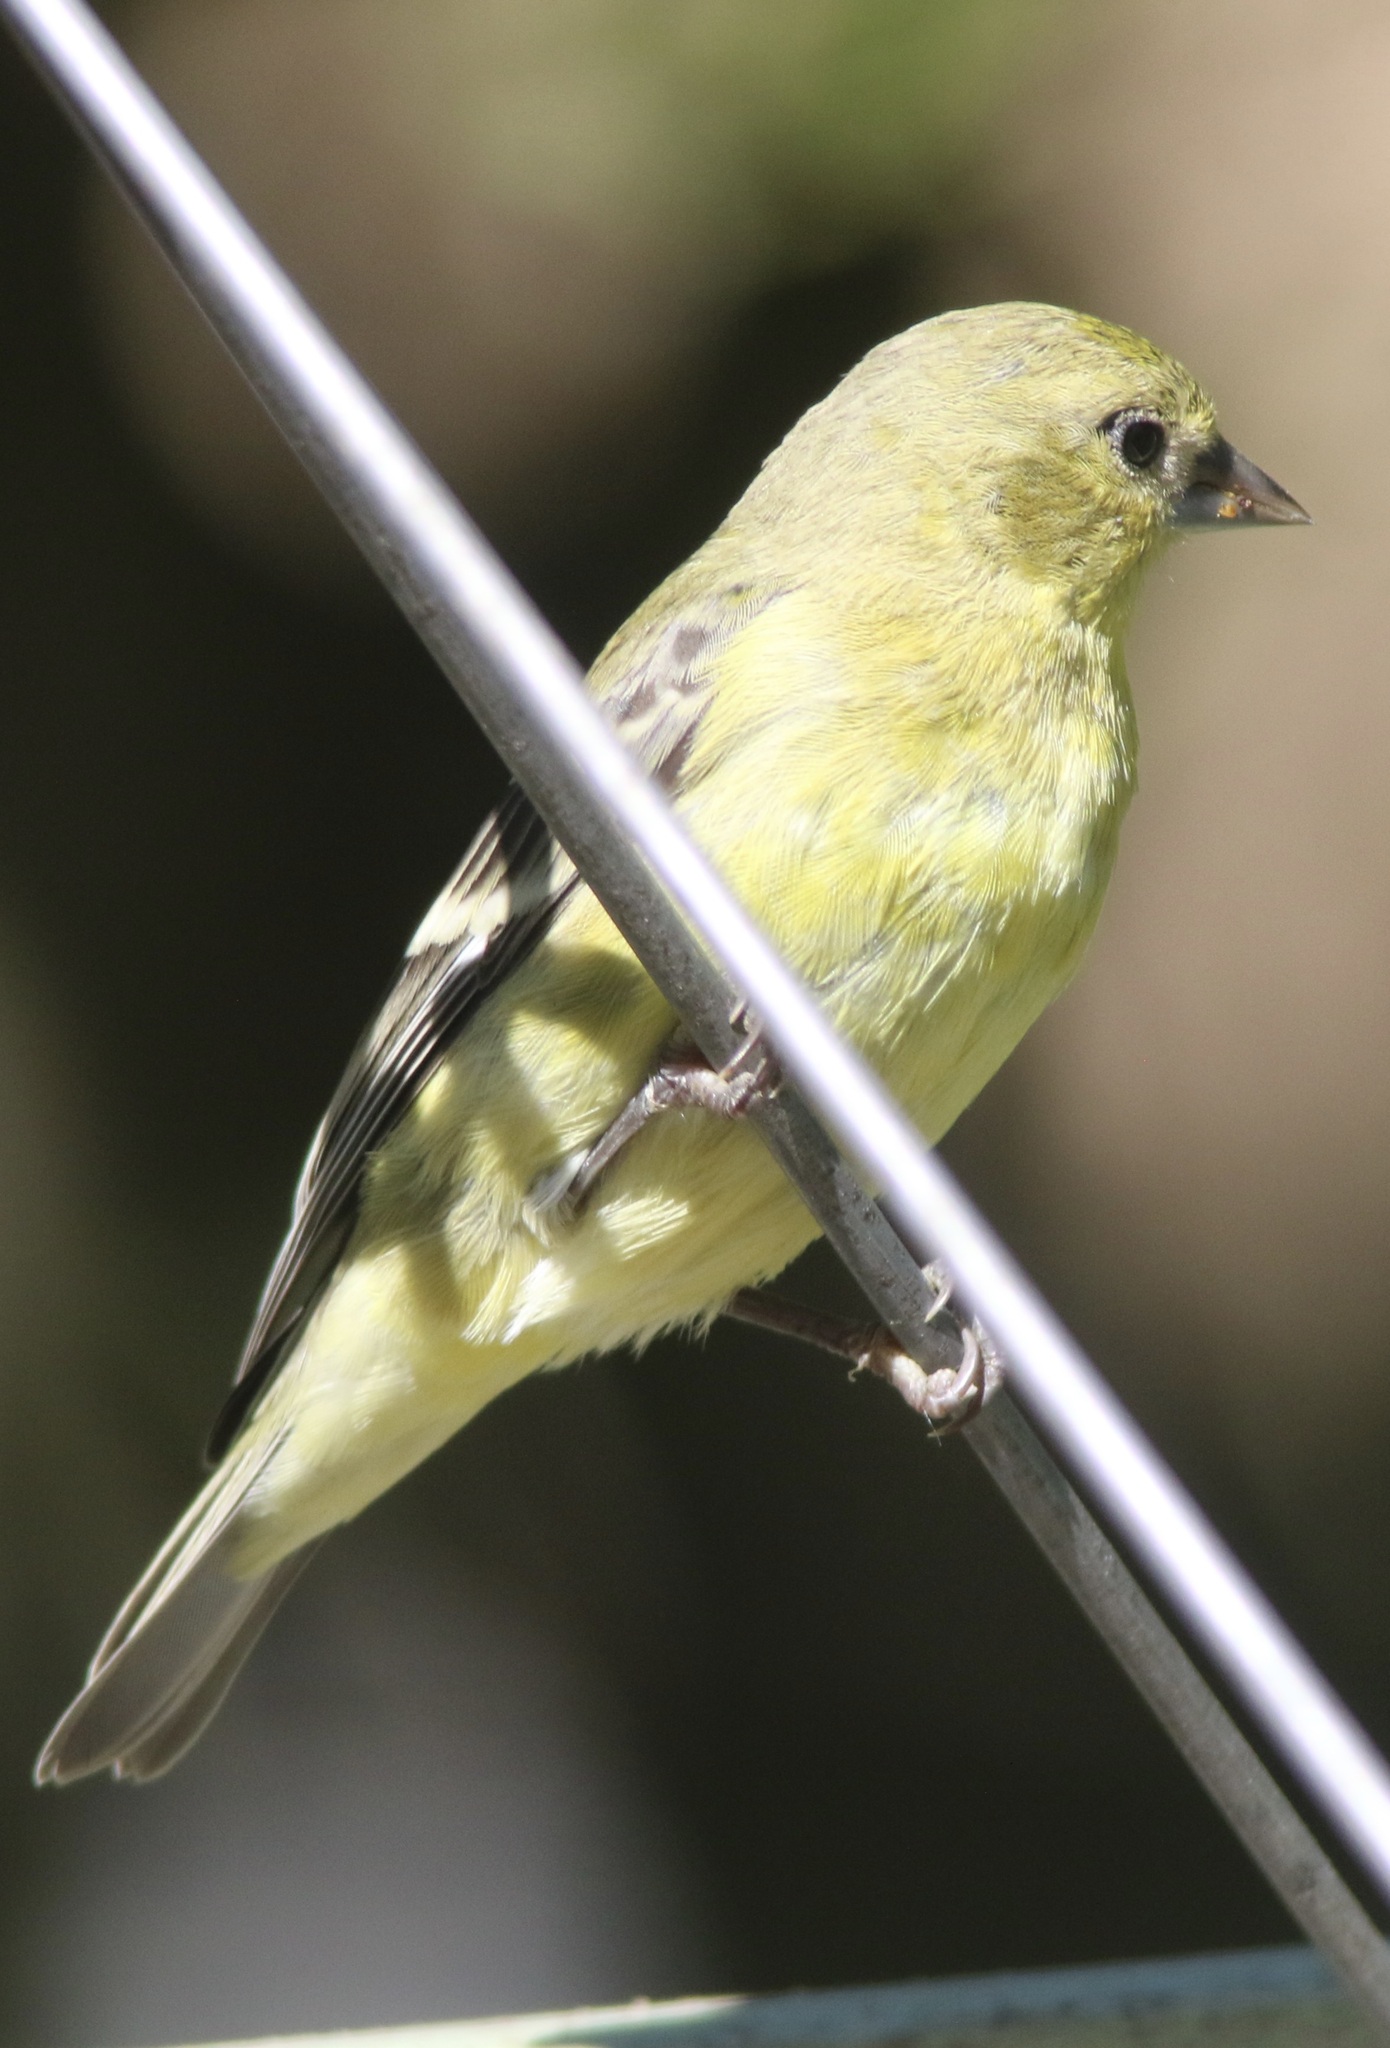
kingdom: Animalia
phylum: Chordata
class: Aves
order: Passeriformes
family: Fringillidae
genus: Spinus
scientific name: Spinus psaltria
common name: Lesser goldfinch
